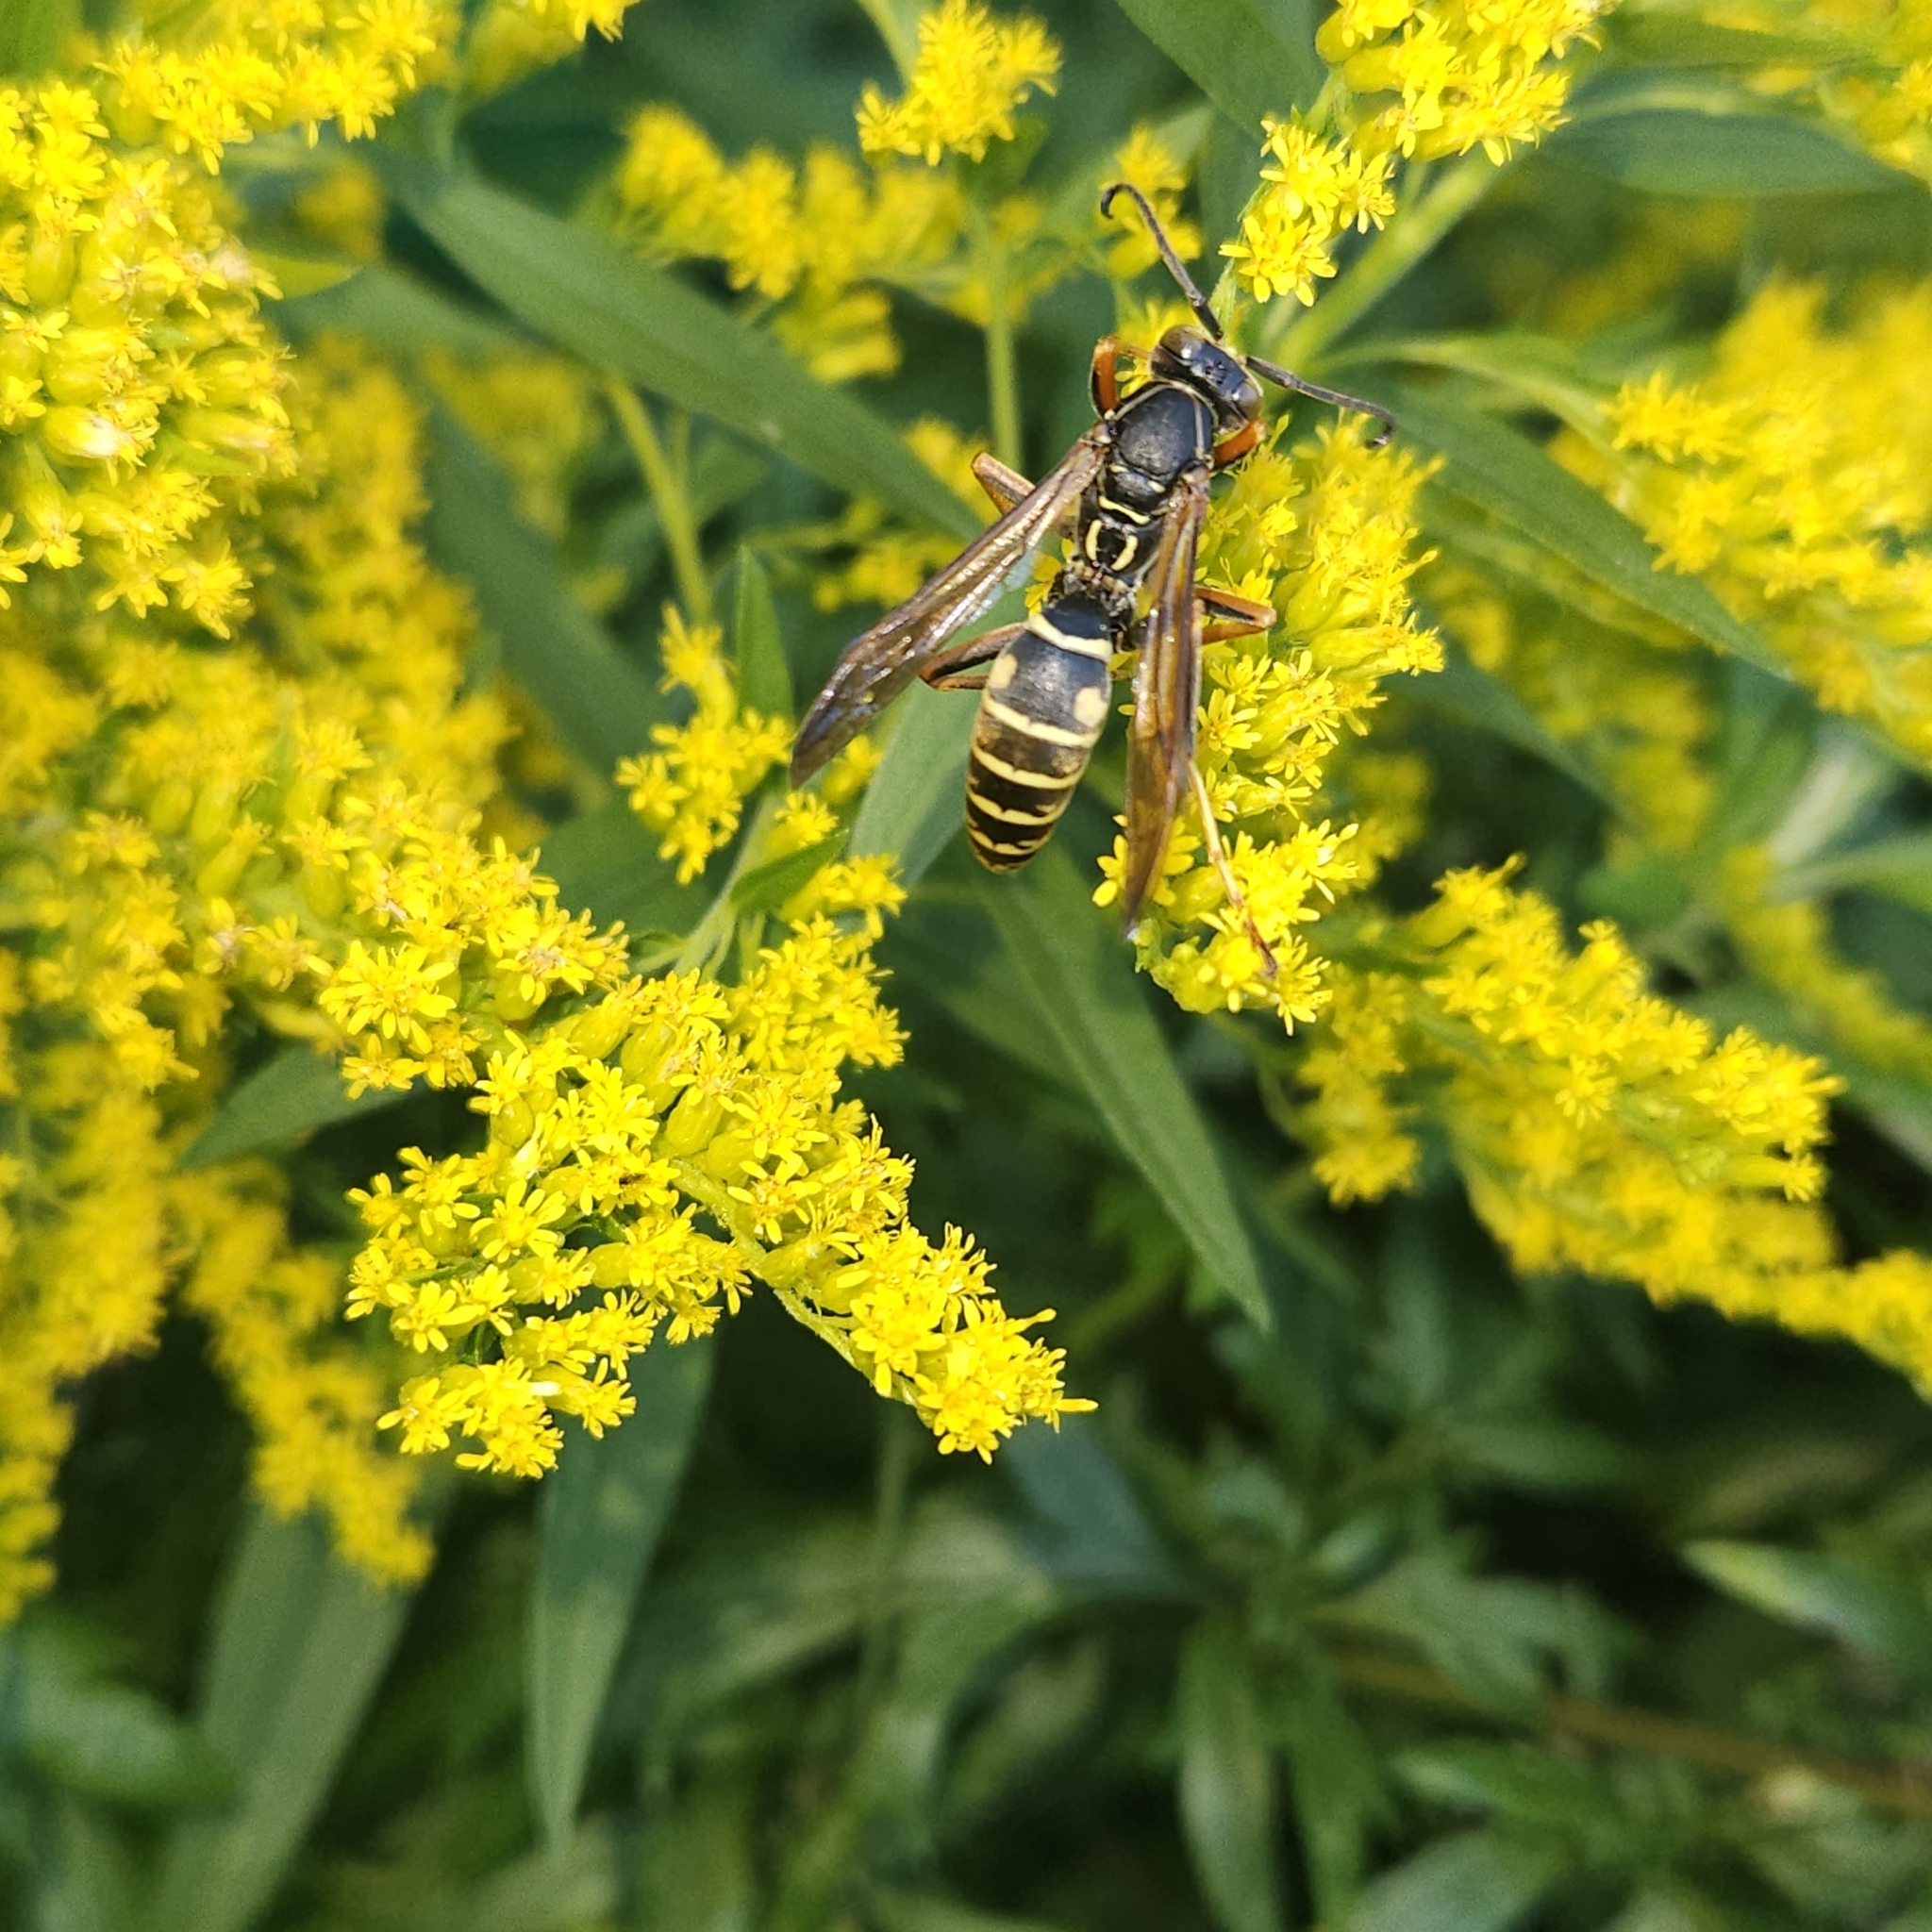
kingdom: Animalia
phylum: Arthropoda
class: Insecta
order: Hymenoptera
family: Eumenidae
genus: Polistes
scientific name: Polistes fuscatus
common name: Dark paper wasp
